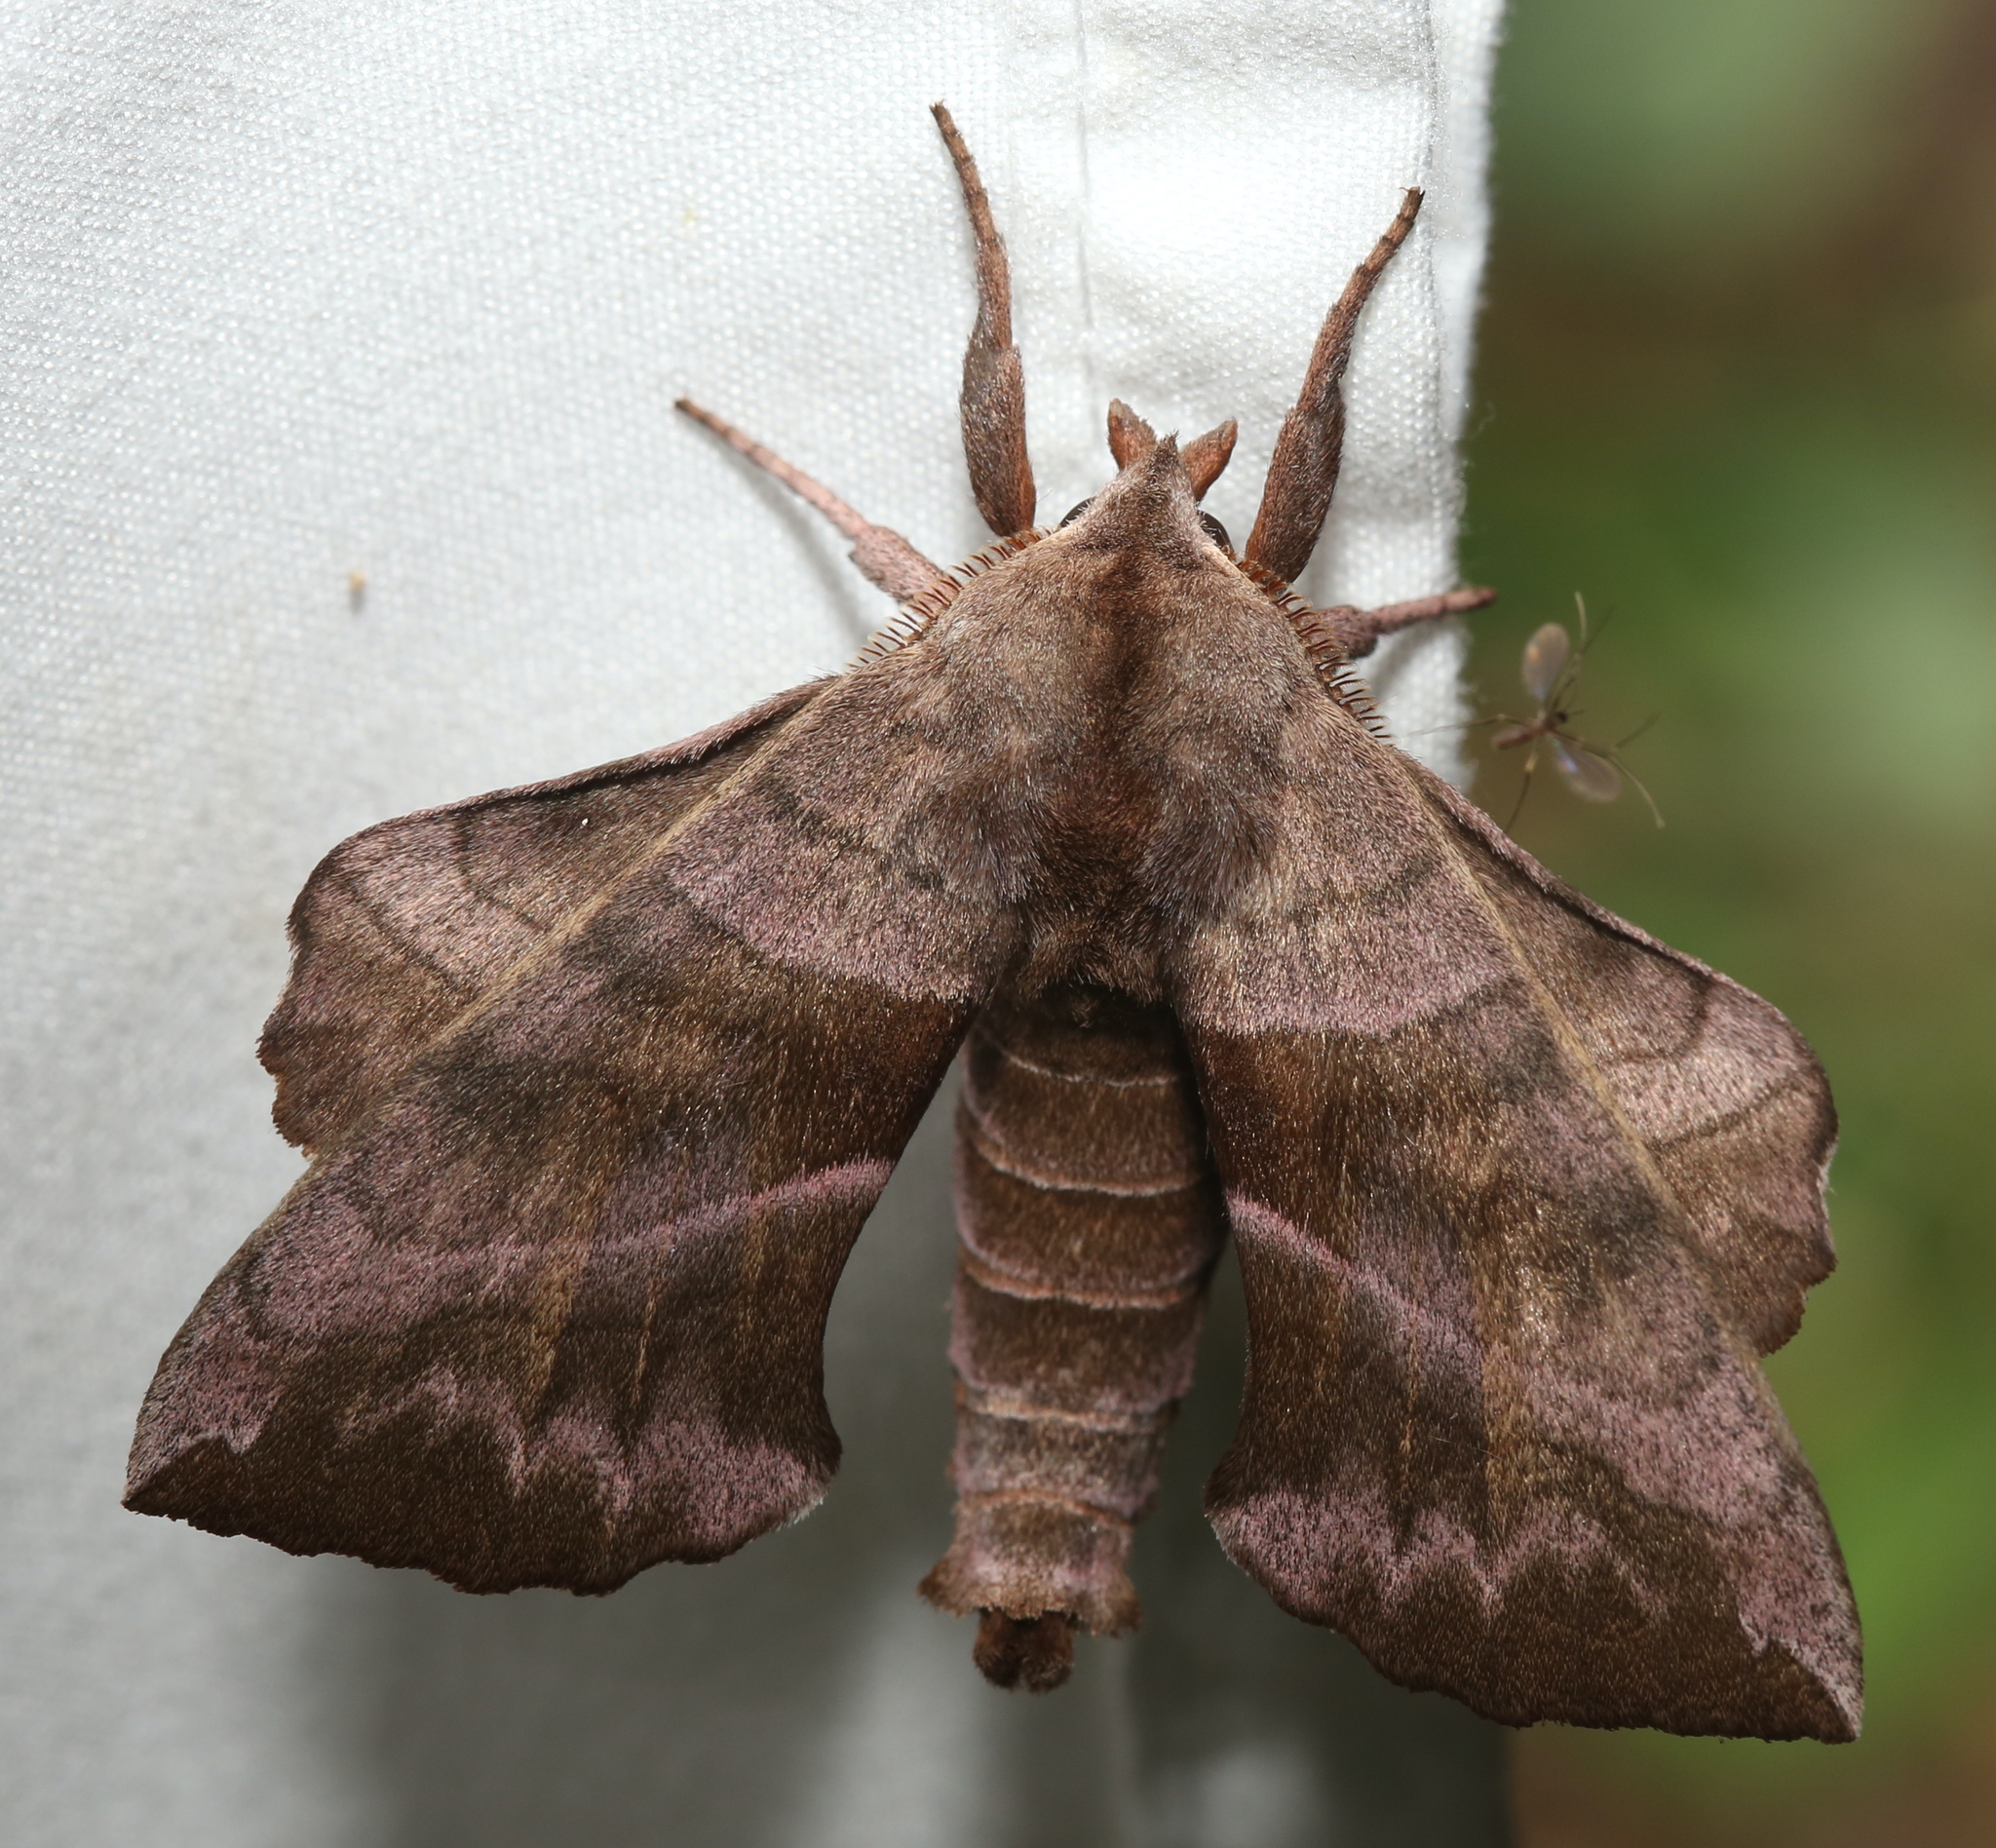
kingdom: Animalia
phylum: Arthropoda
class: Insecta
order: Lepidoptera
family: Sphingidae
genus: Amorpha
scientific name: Amorpha juglandis
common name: Walnut sphinx
